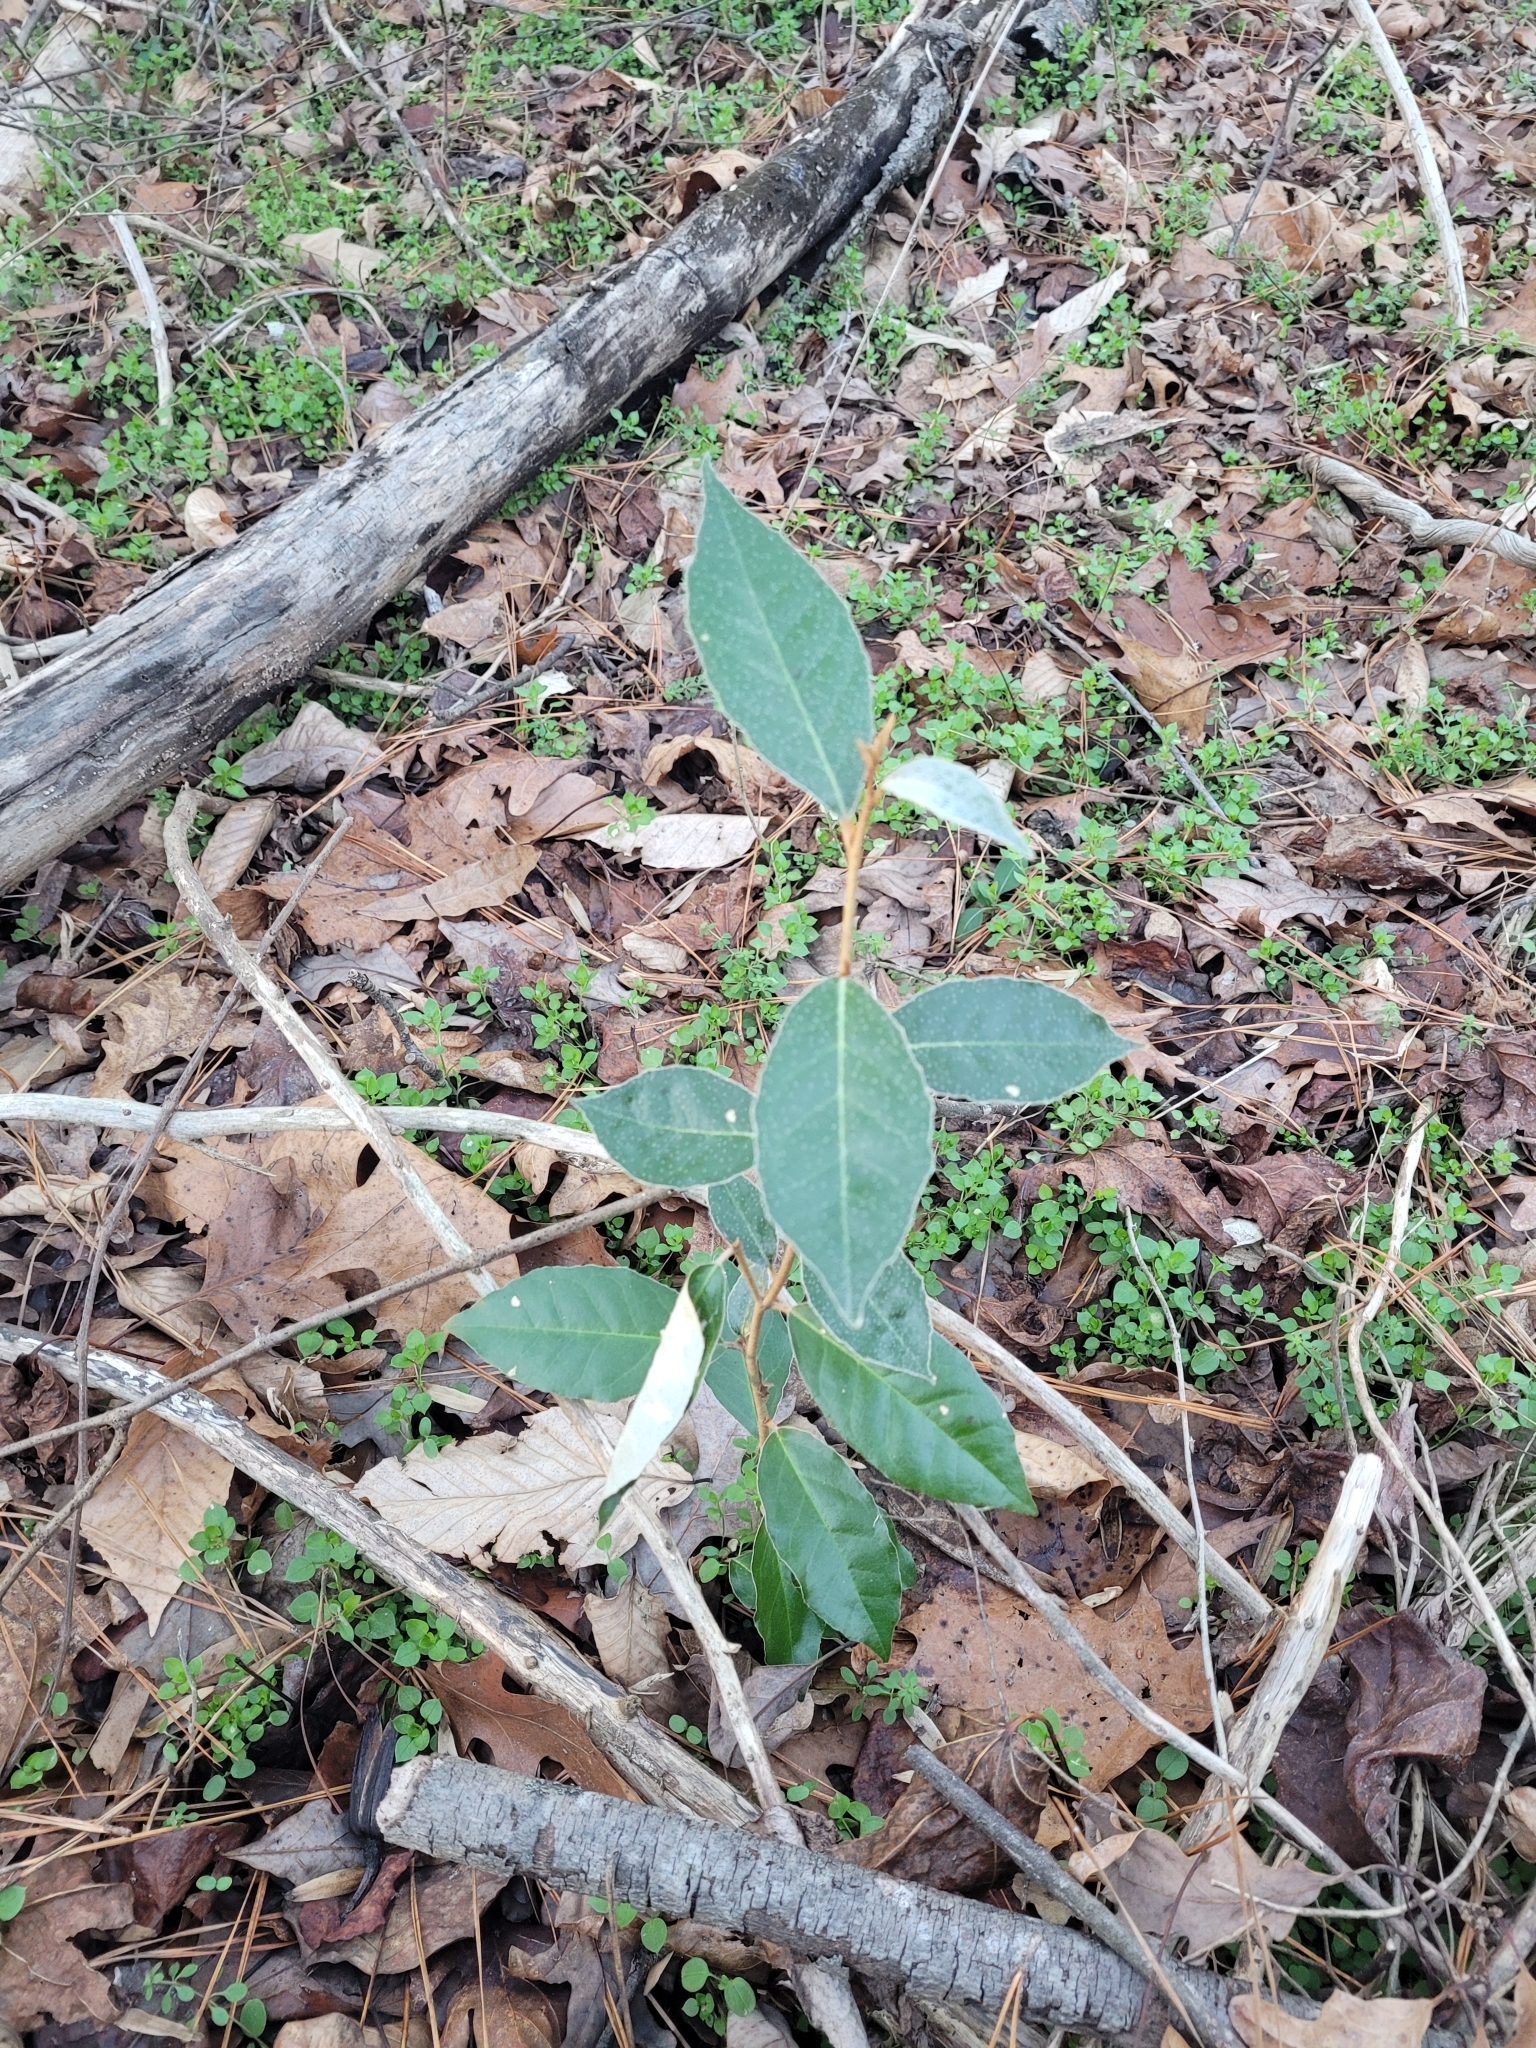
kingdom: Plantae
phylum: Tracheophyta
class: Magnoliopsida
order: Rosales
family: Elaeagnaceae
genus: Elaeagnus
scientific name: Elaeagnus pungens
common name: Spiny oleaster
